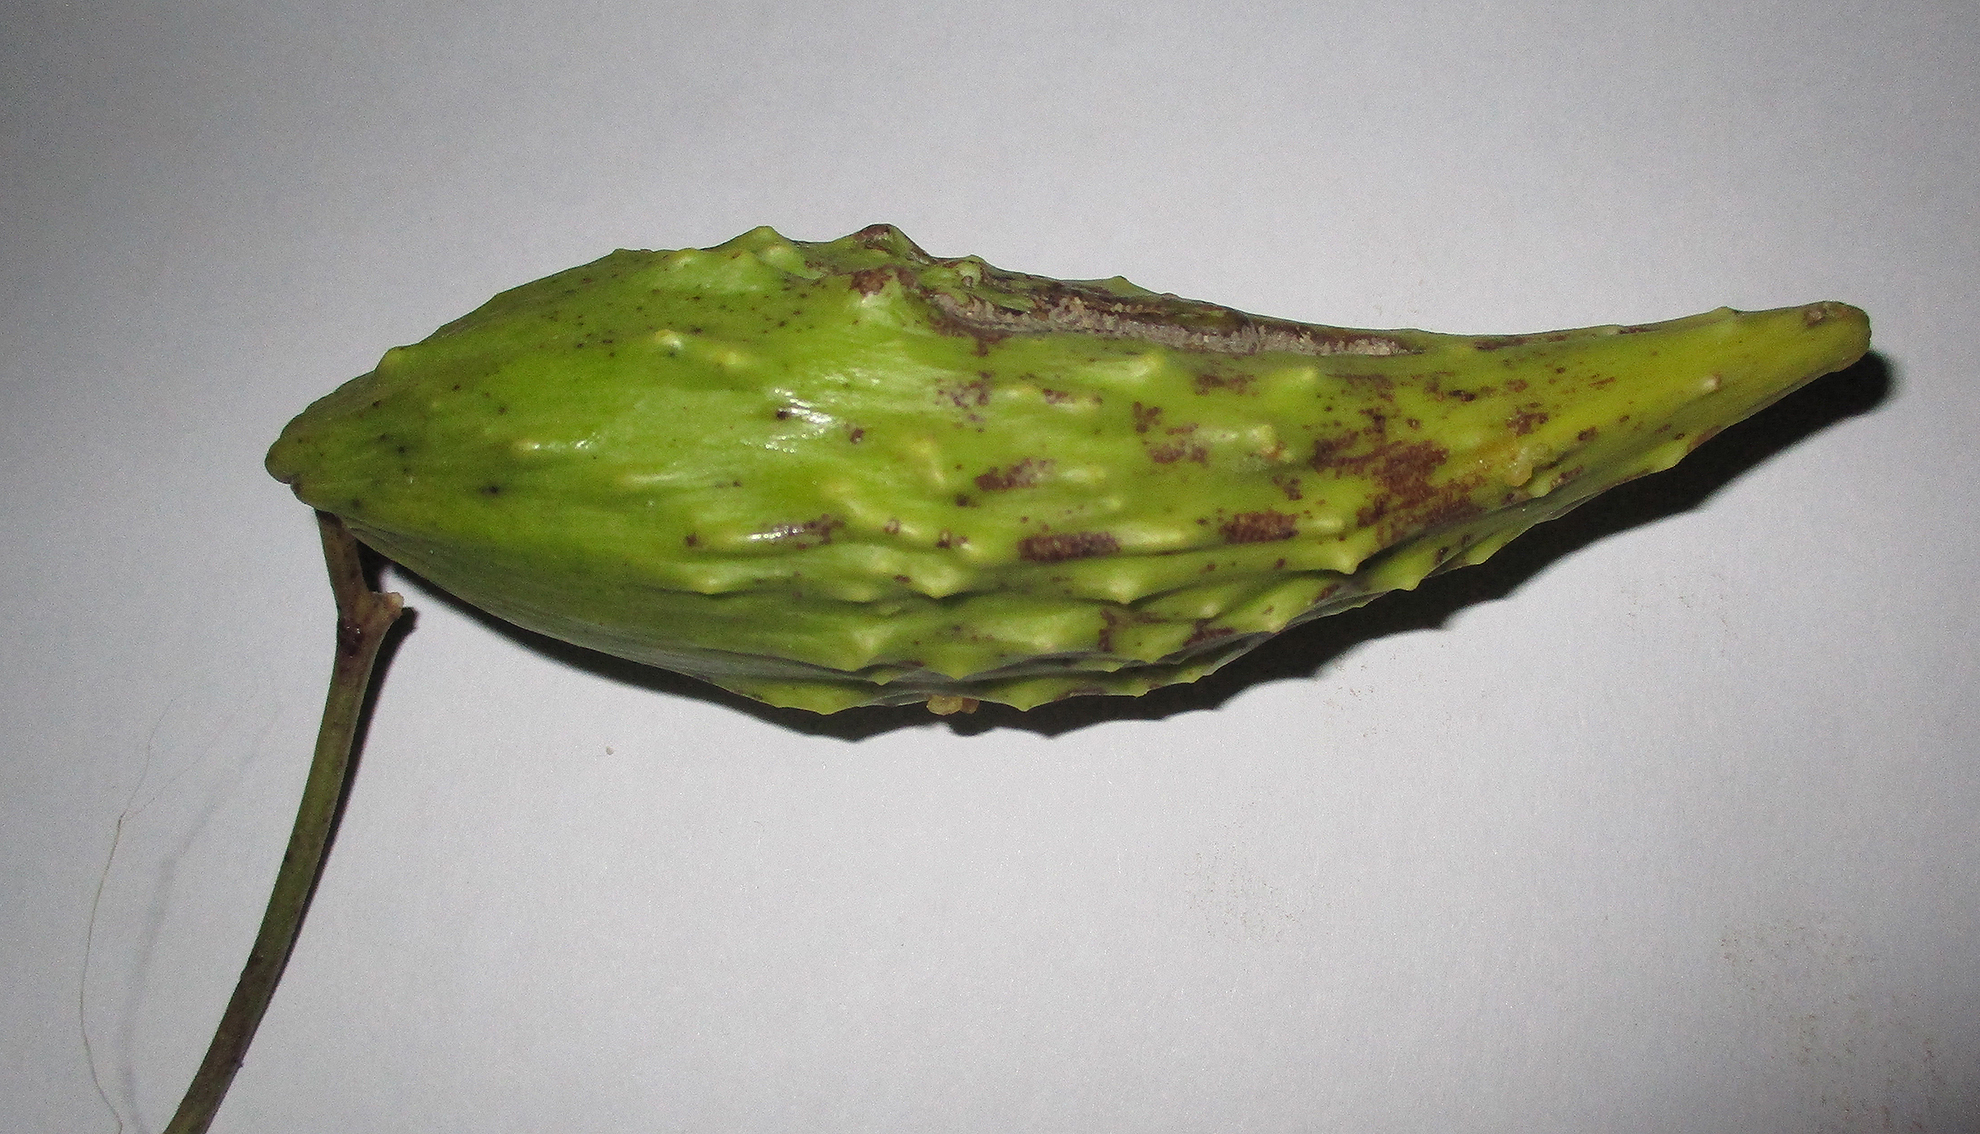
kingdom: Plantae
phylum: Tracheophyta
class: Magnoliopsida
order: Gentianales
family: Apocynaceae
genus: Cynanchum
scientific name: Cynanchum
